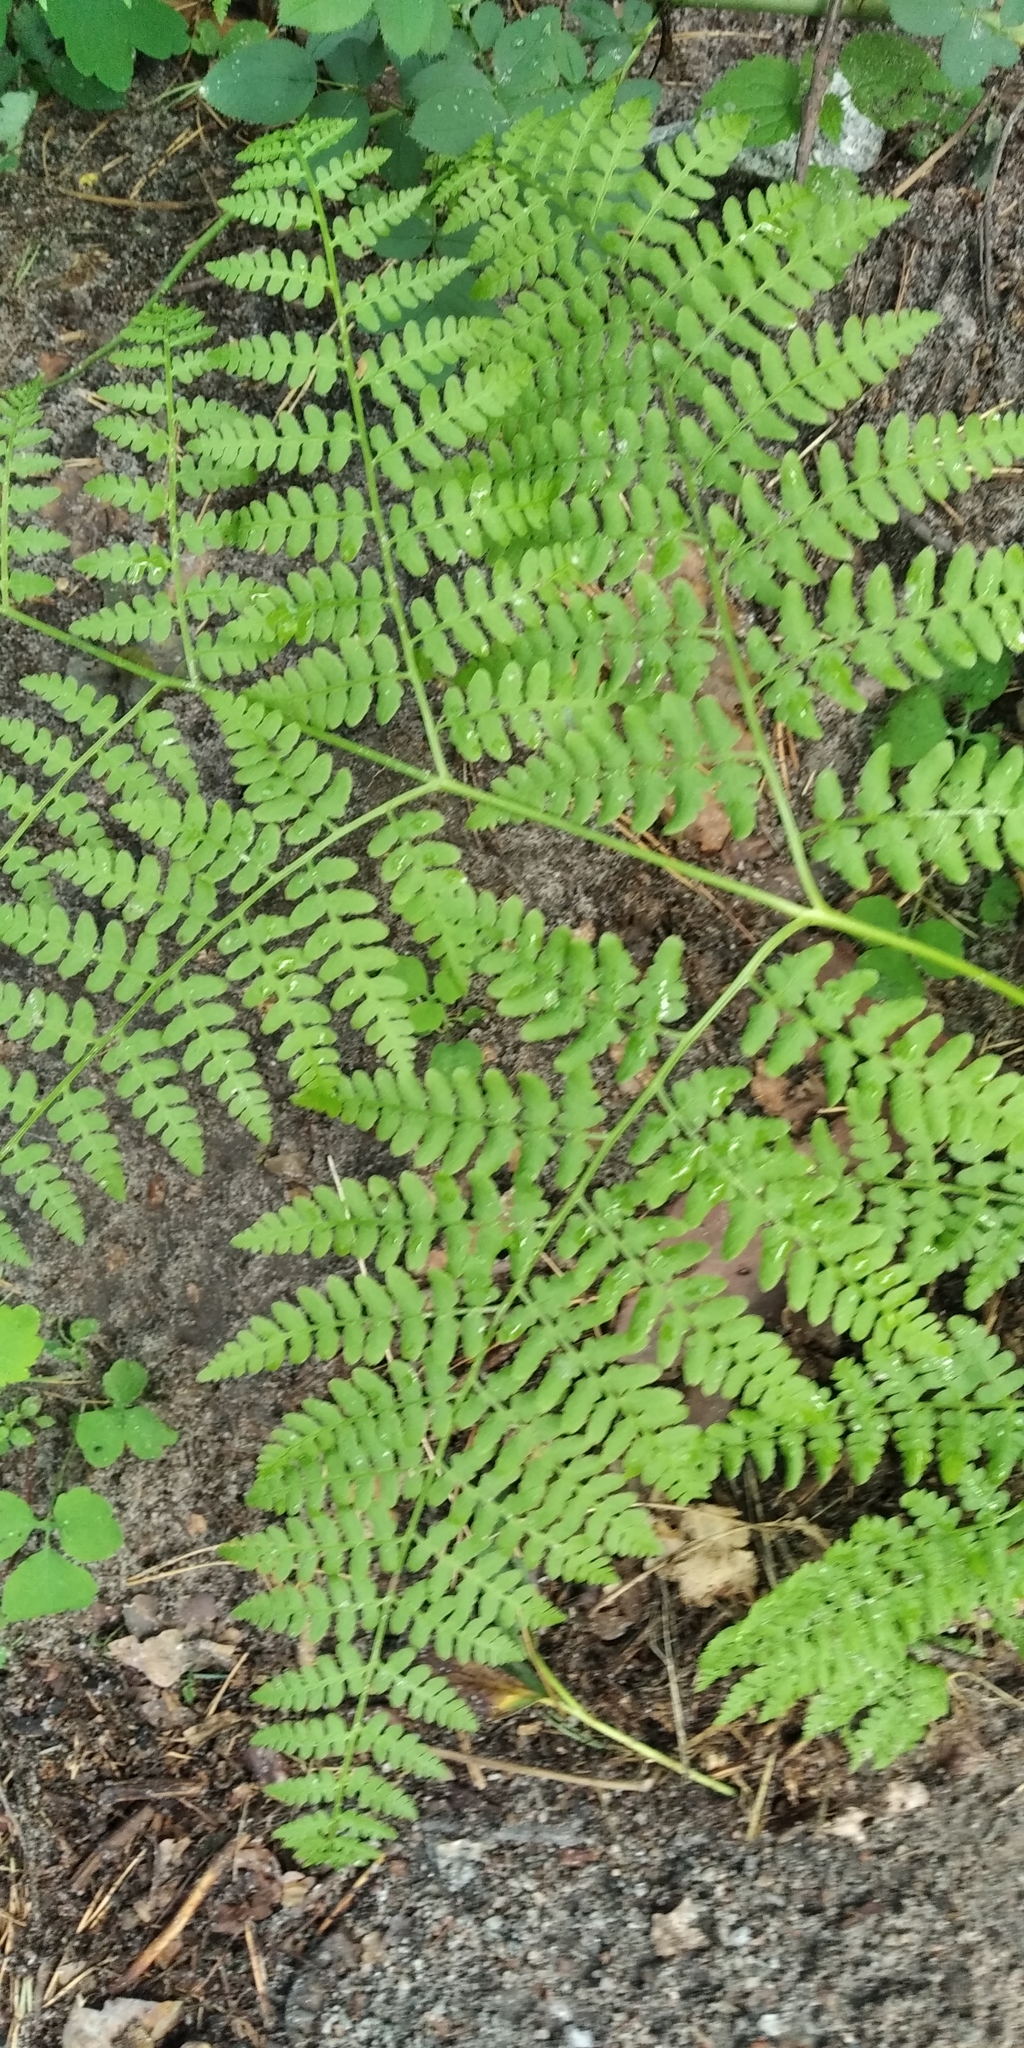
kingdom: Plantae
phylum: Tracheophyta
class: Polypodiopsida
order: Polypodiales
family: Dennstaedtiaceae
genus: Pteridium
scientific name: Pteridium aquilinum
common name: Bracken
